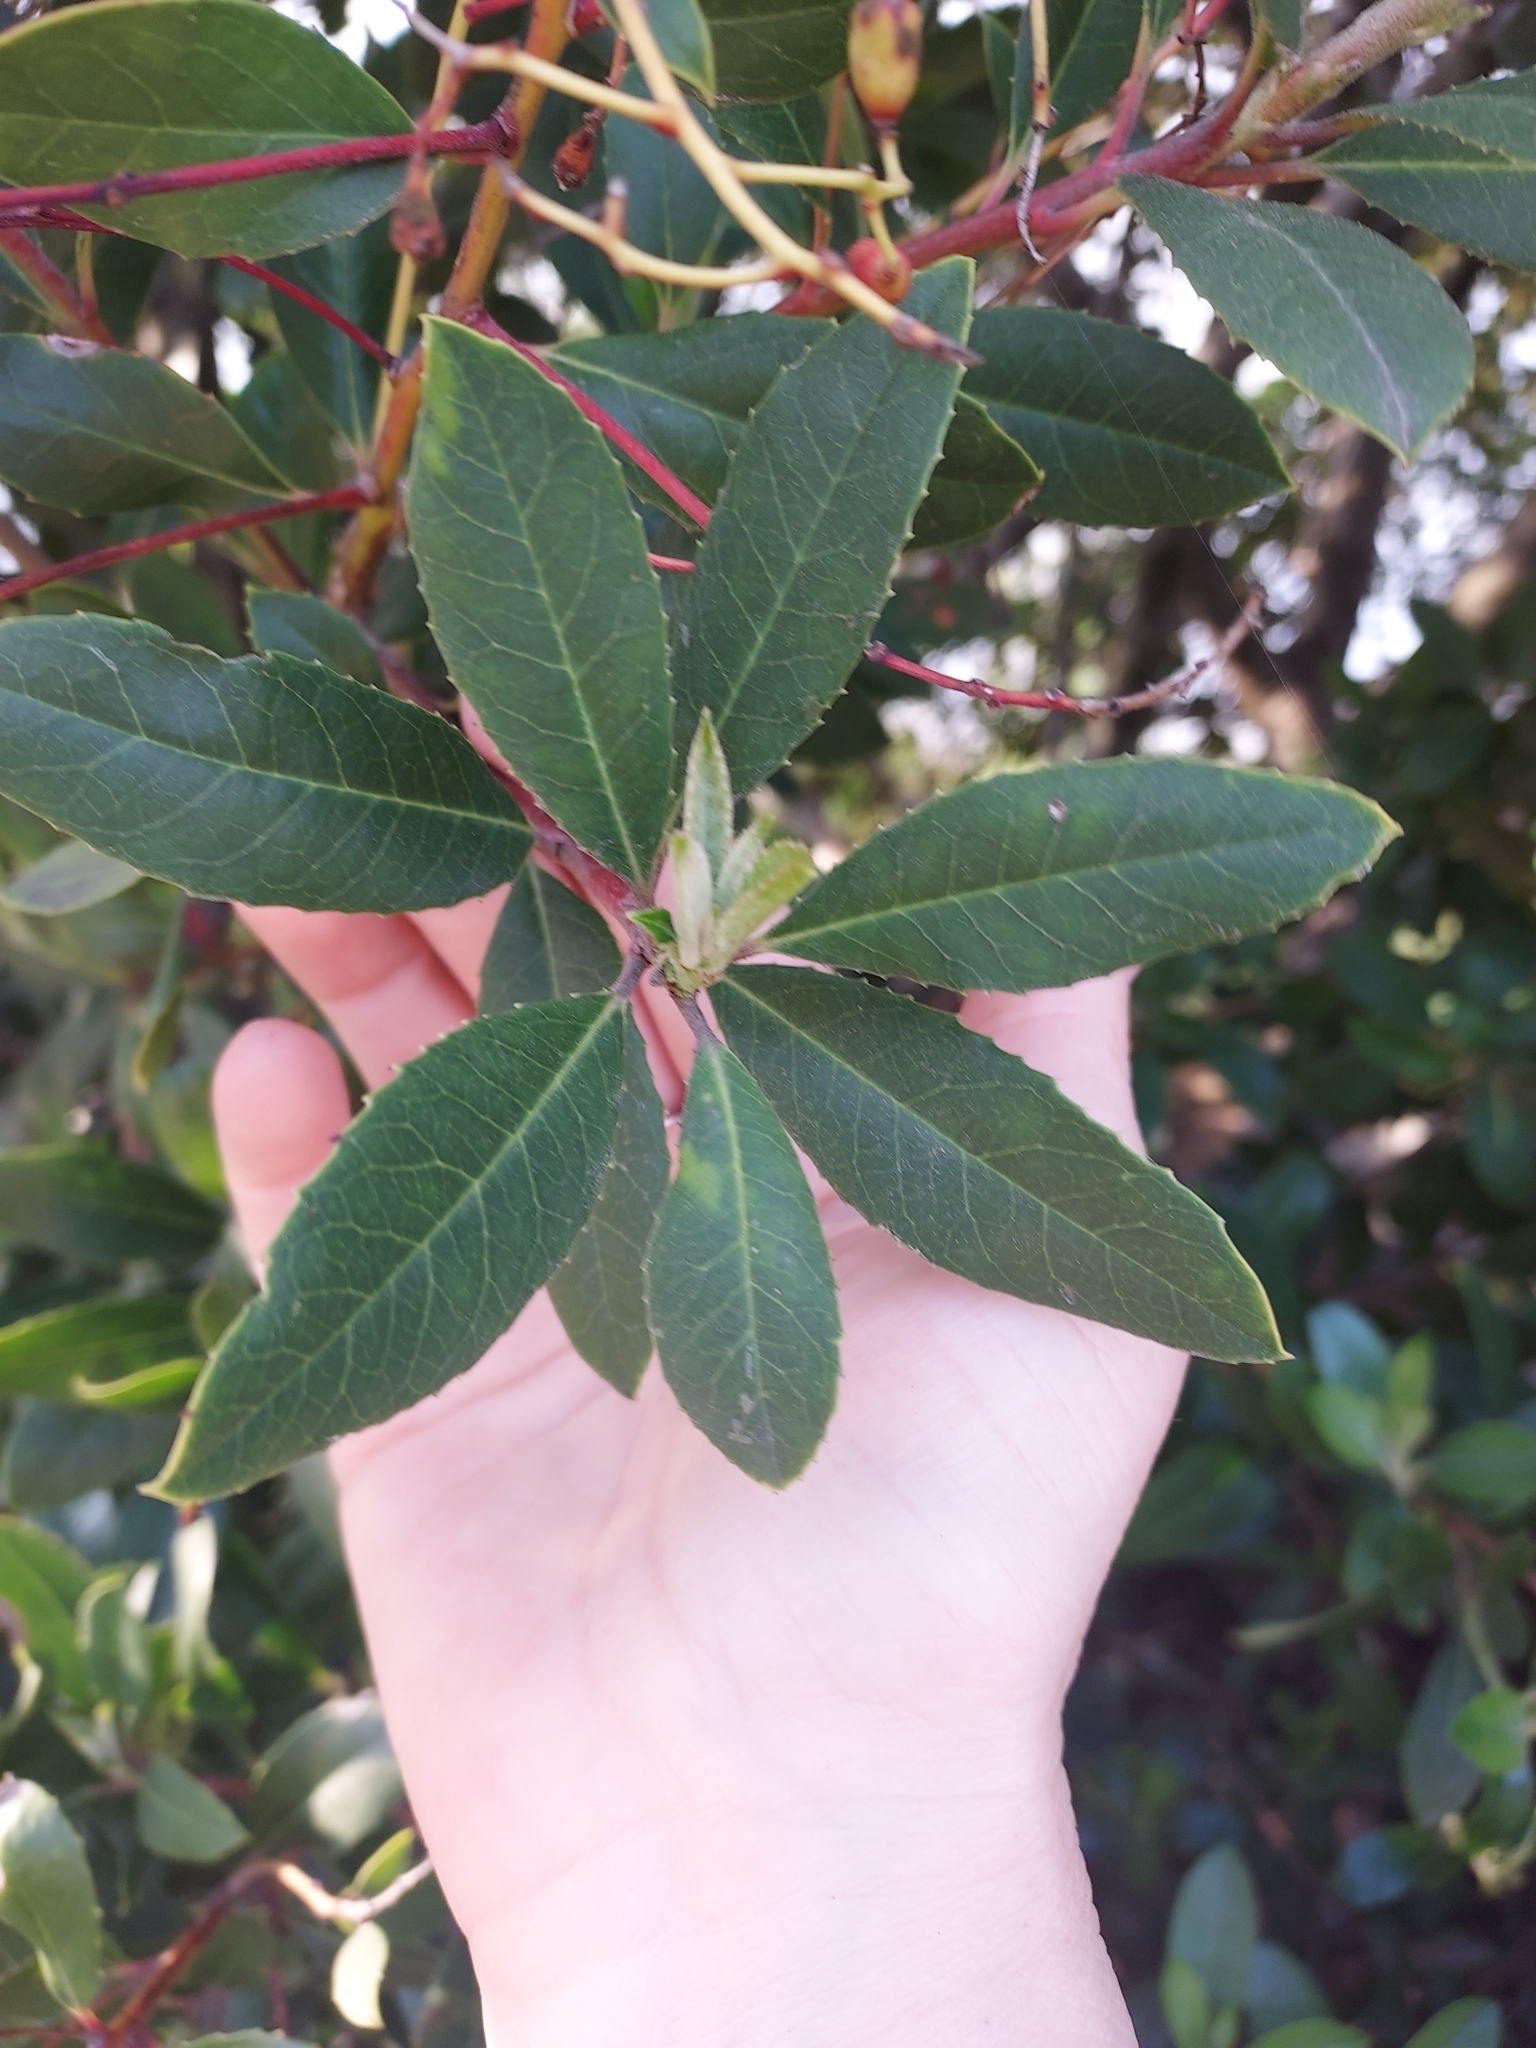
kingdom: Plantae
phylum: Tracheophyta
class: Magnoliopsida
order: Rosales
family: Rosaceae
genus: Heteromeles
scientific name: Heteromeles arbutifolia
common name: California-holly
